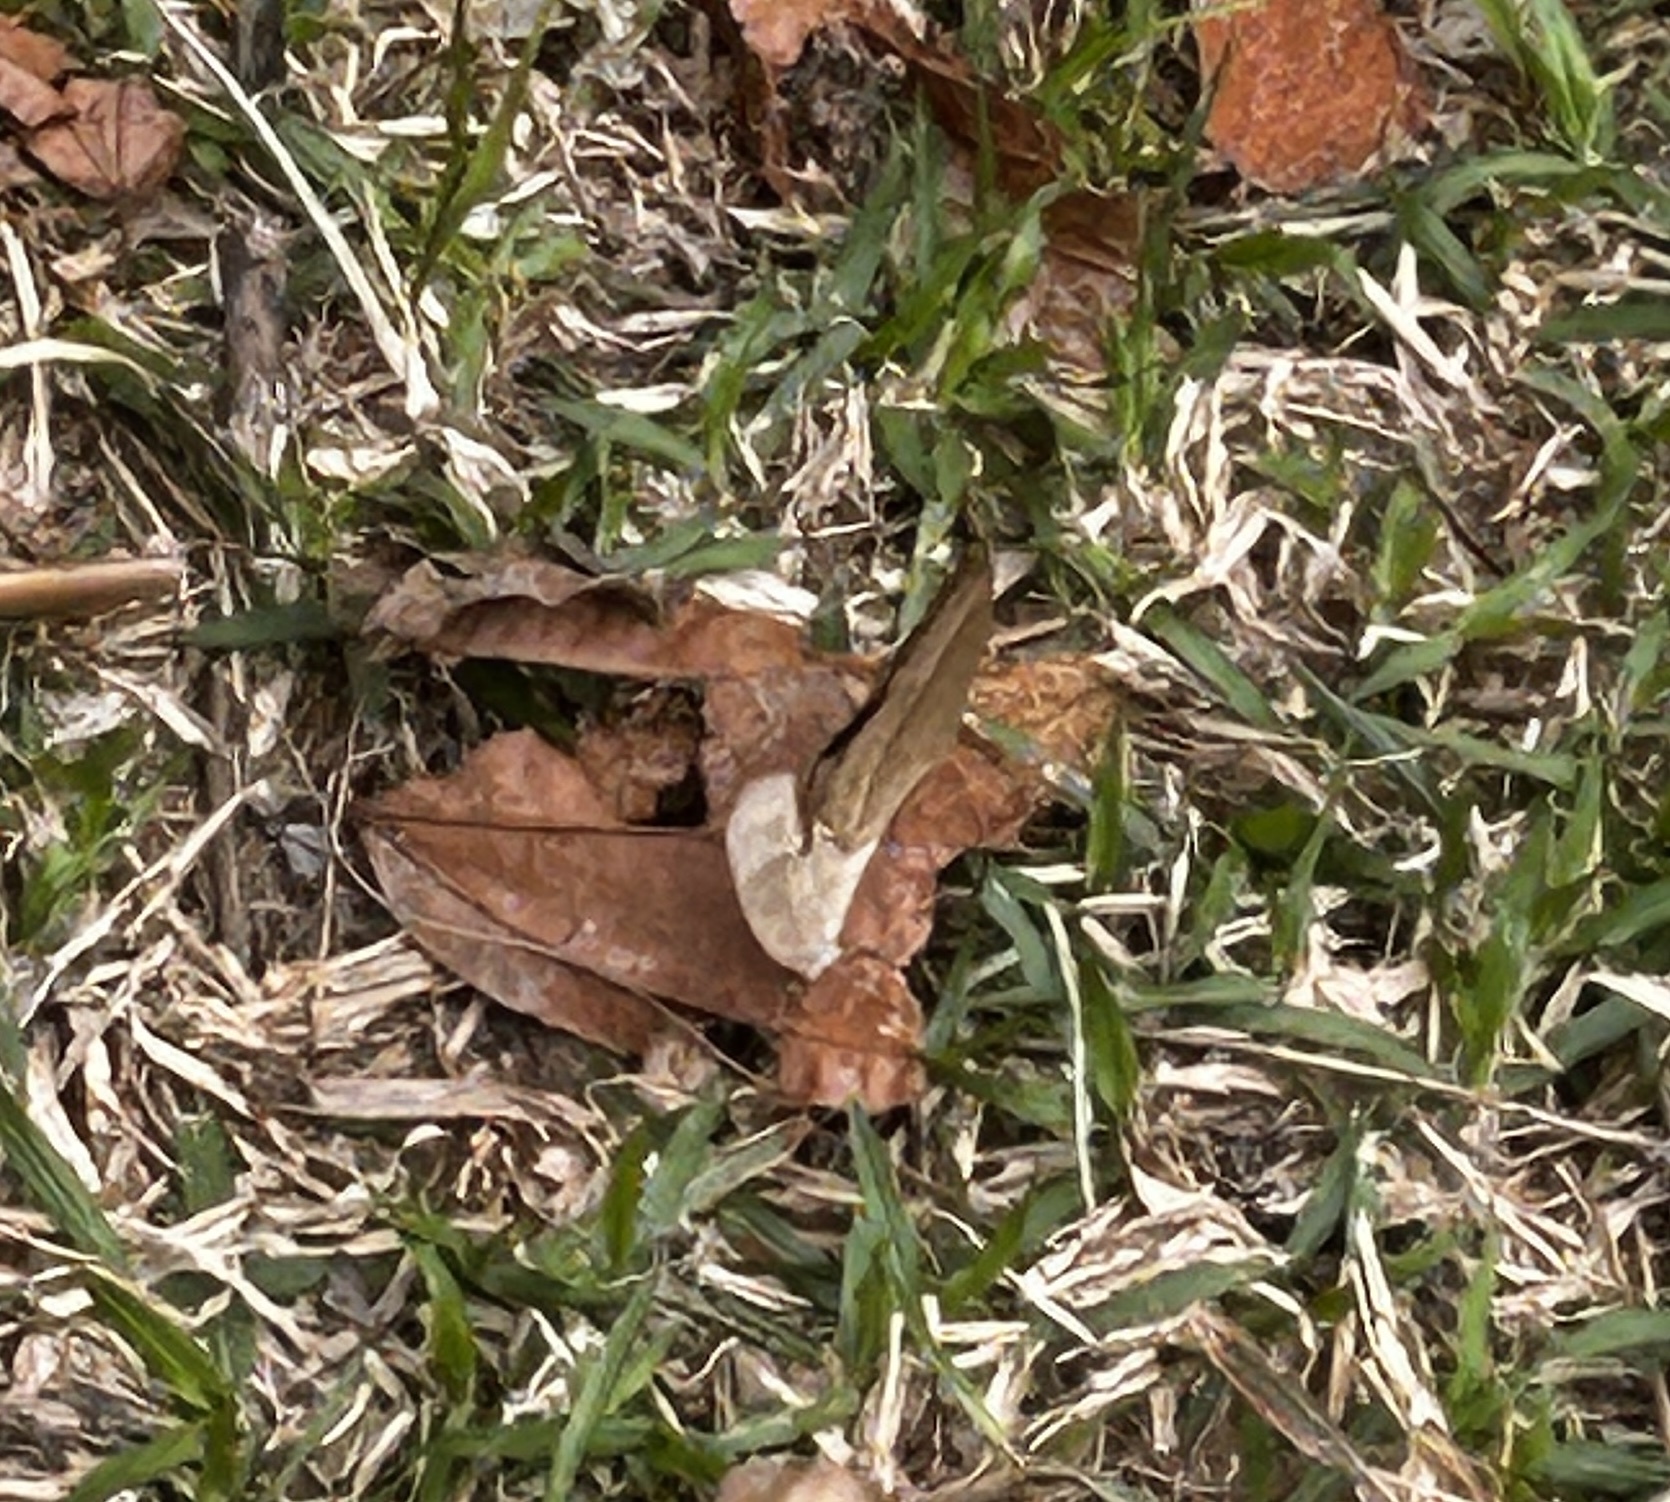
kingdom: Animalia
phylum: Arthropoda
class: Insecta
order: Lepidoptera
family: Nymphalidae
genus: Mycalesis
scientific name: Mycalesis mineus
